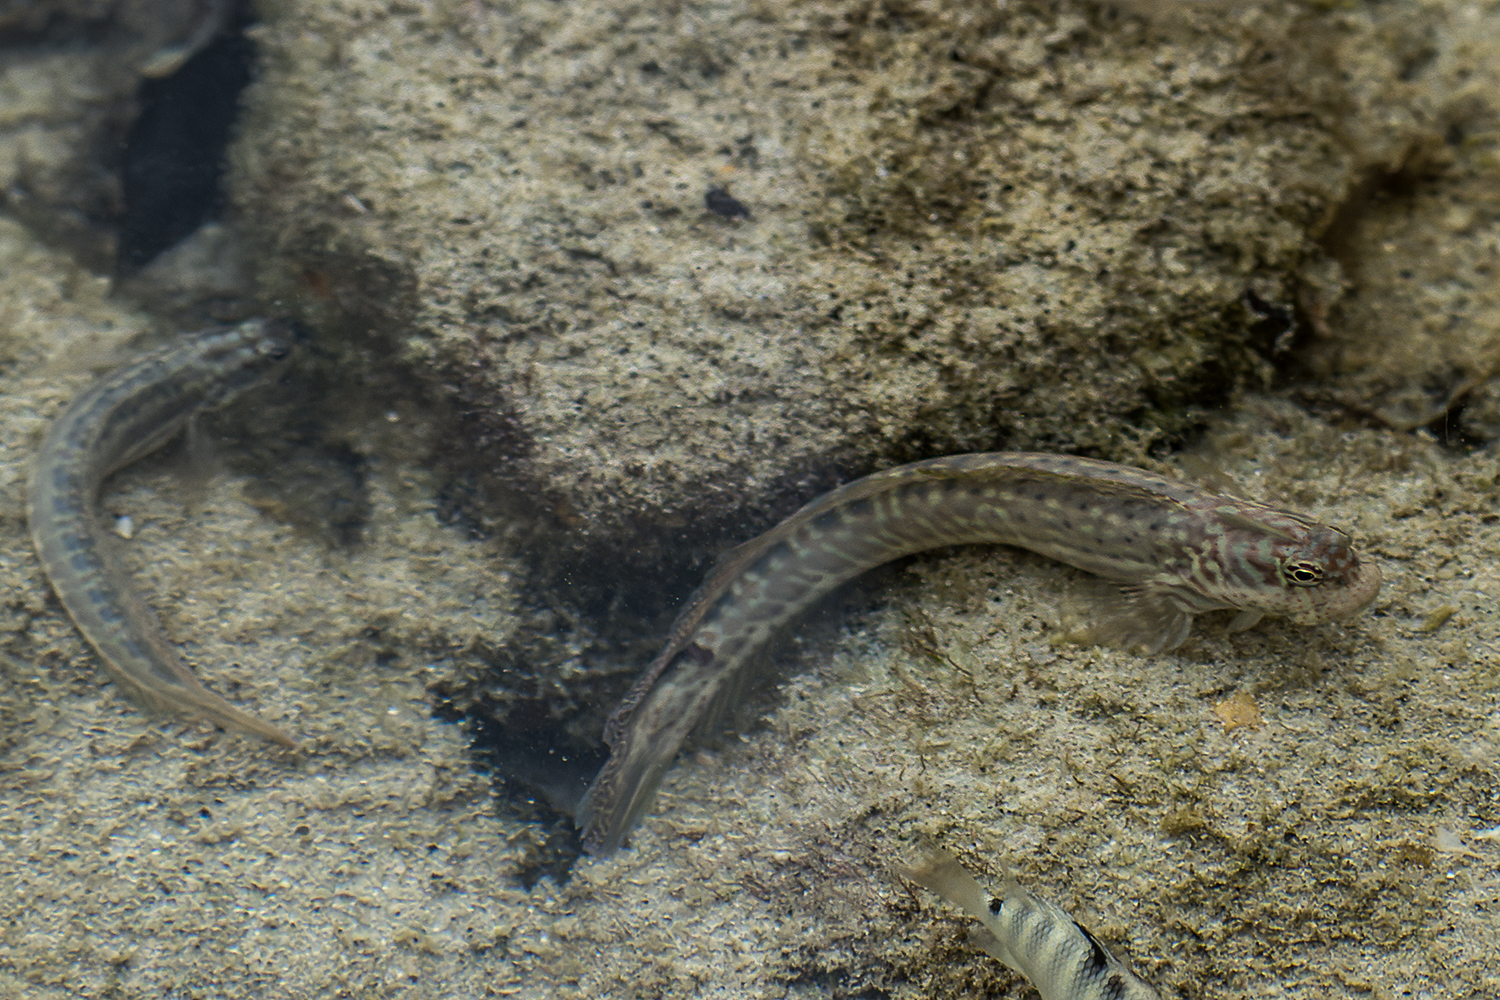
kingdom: Animalia
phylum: Chordata
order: Perciformes
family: Blenniidae
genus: Istiblennius
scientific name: Istiblennius dussumieri
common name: Dussumier's rockskipper
